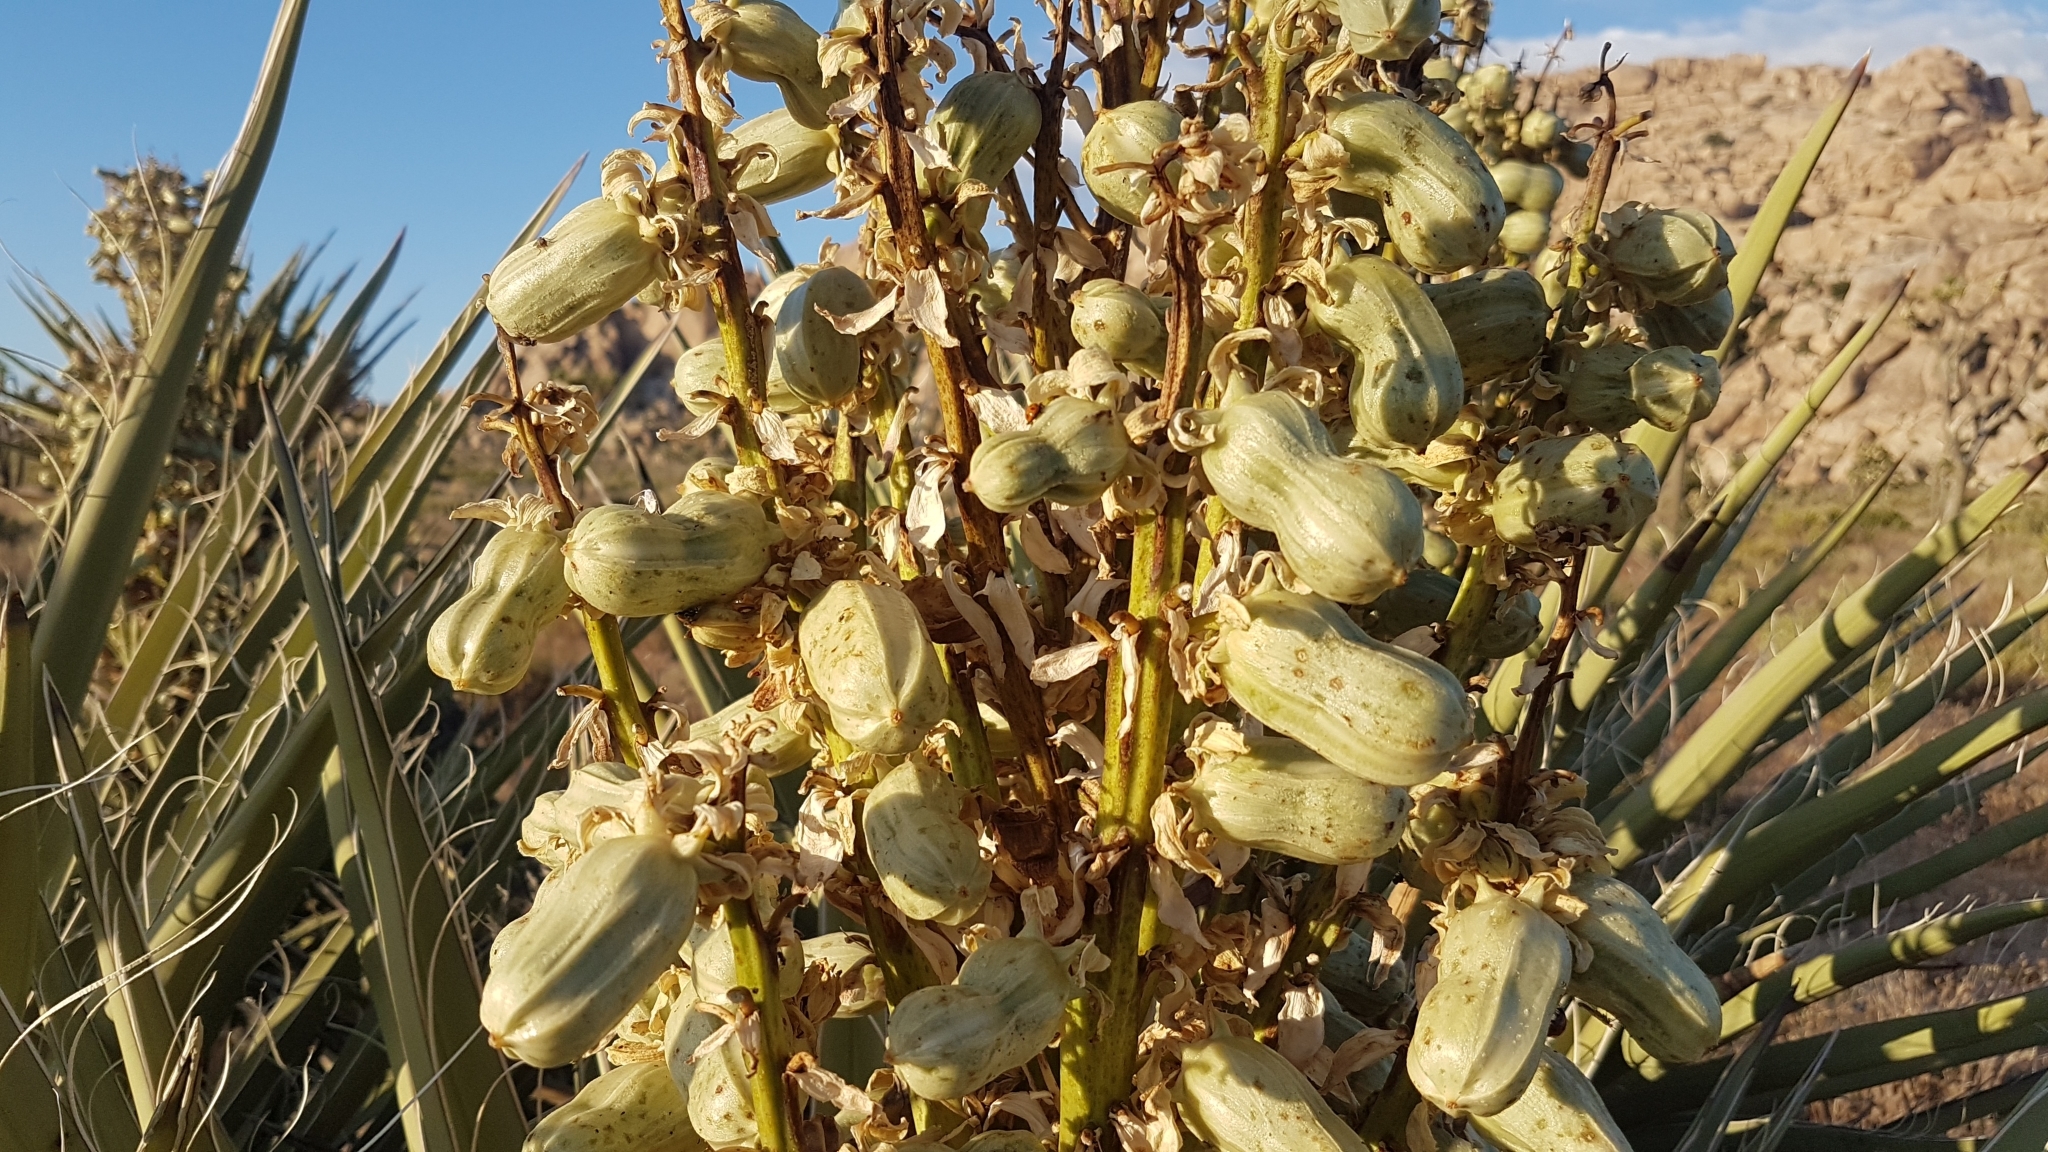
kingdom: Plantae
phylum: Tracheophyta
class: Liliopsida
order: Asparagales
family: Asparagaceae
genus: Yucca
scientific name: Yucca schidigera
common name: Mojave yucca
